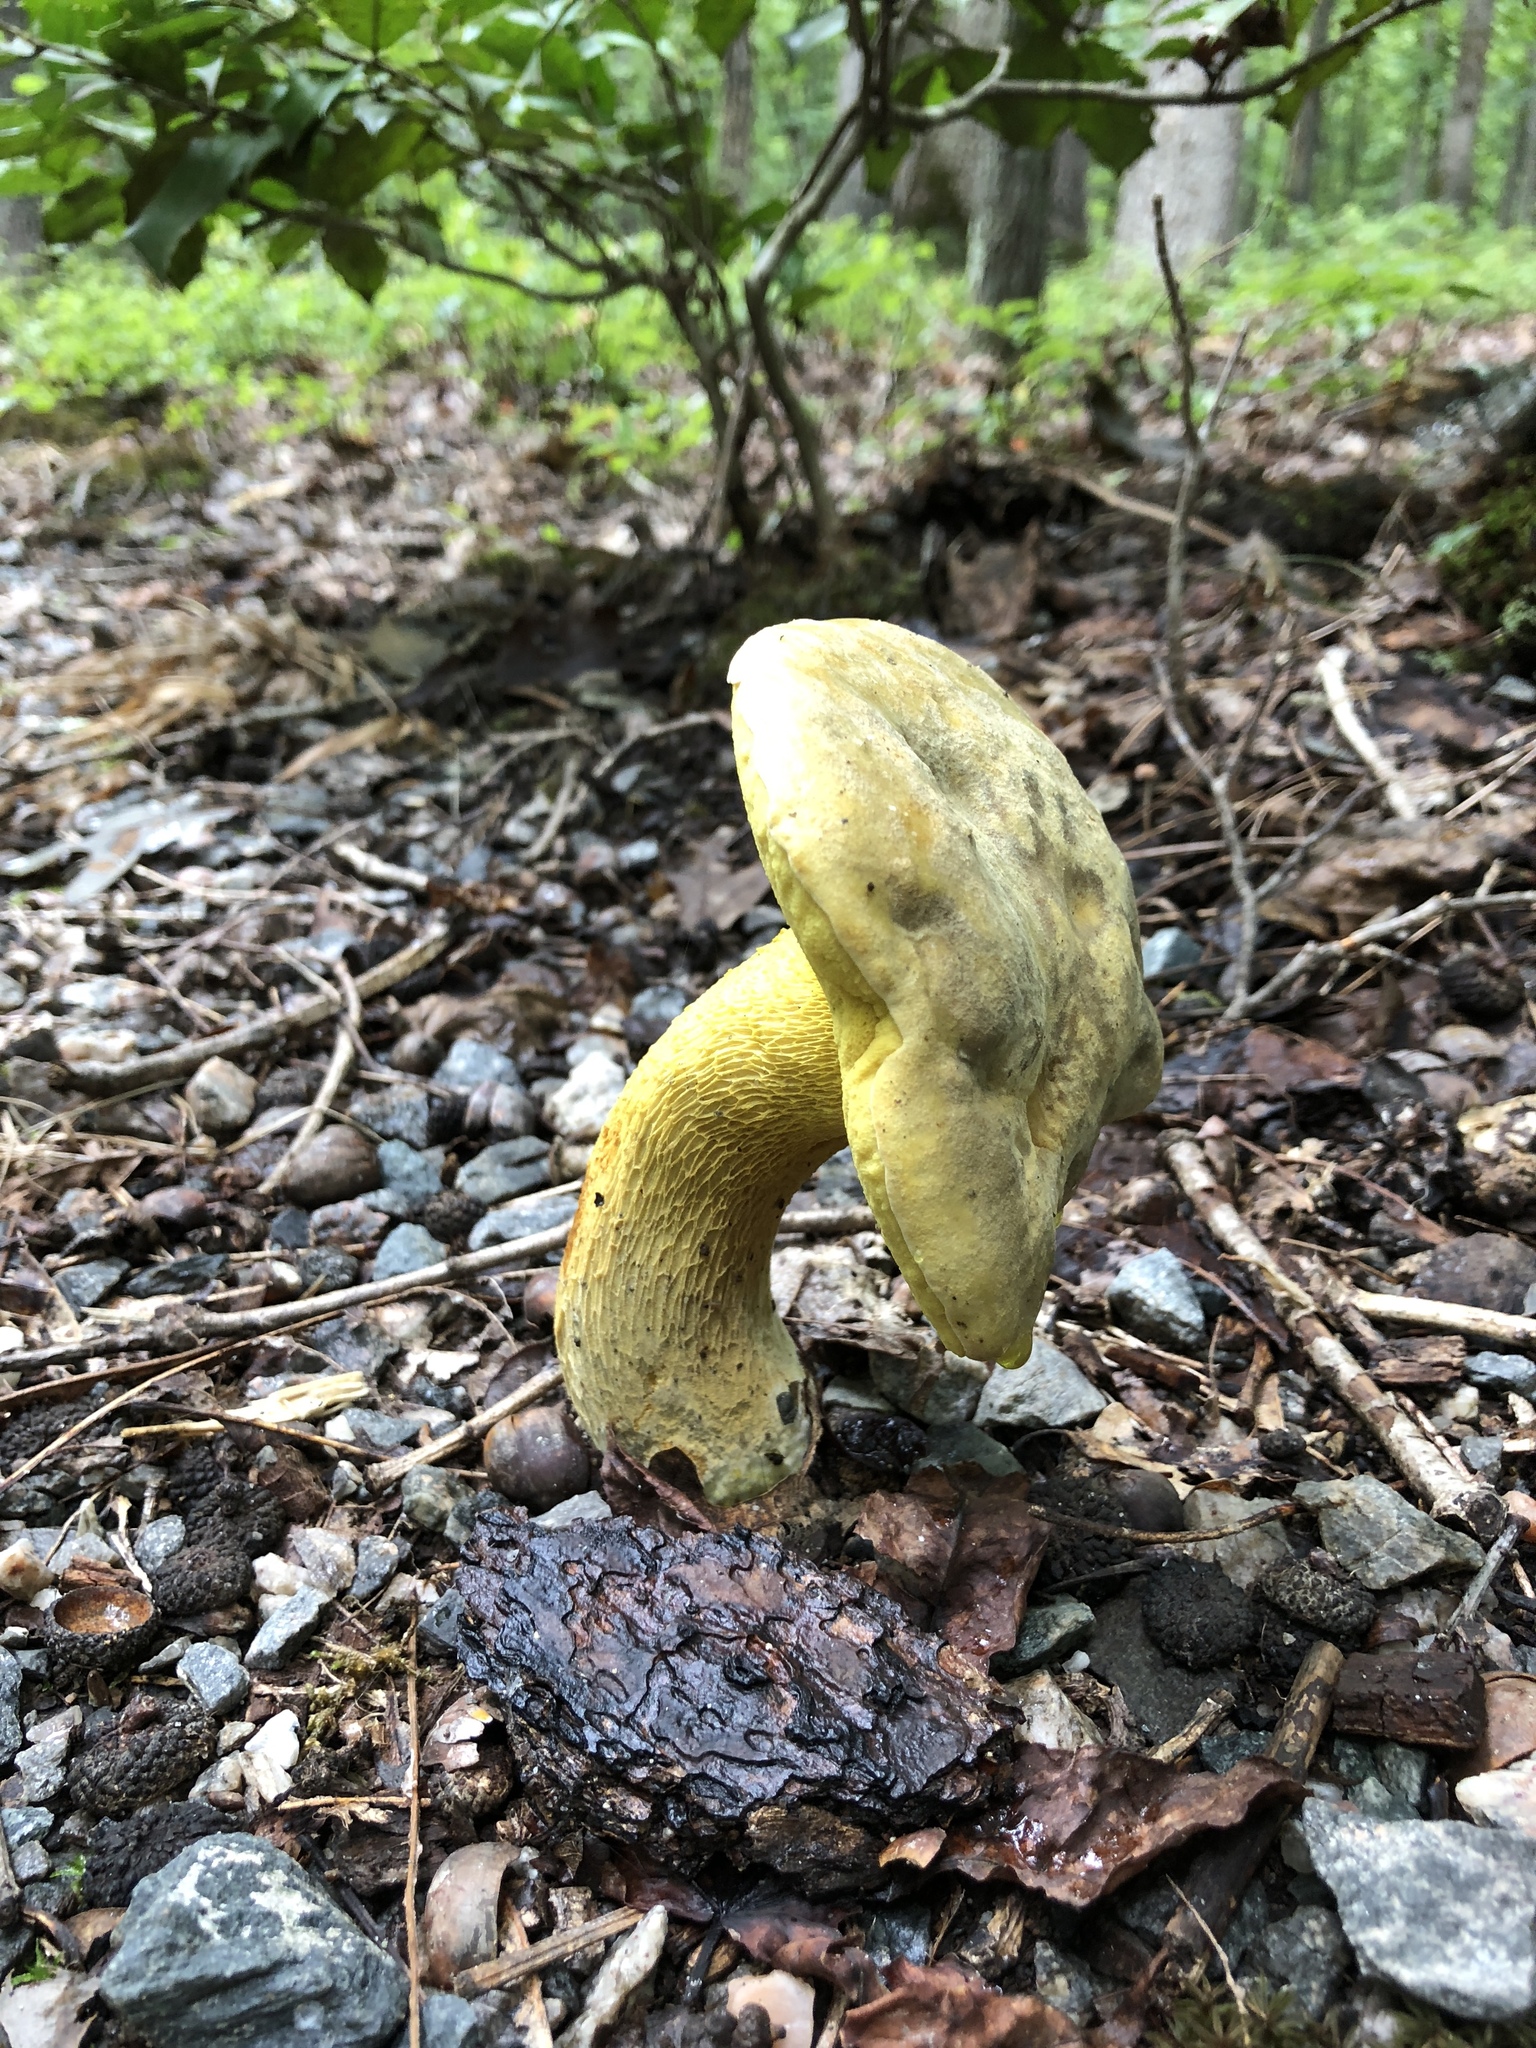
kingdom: Fungi
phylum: Basidiomycota
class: Agaricomycetes
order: Boletales
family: Boletaceae
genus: Retiboletus
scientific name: Retiboletus ornatipes
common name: Ornate-stalked bolete
